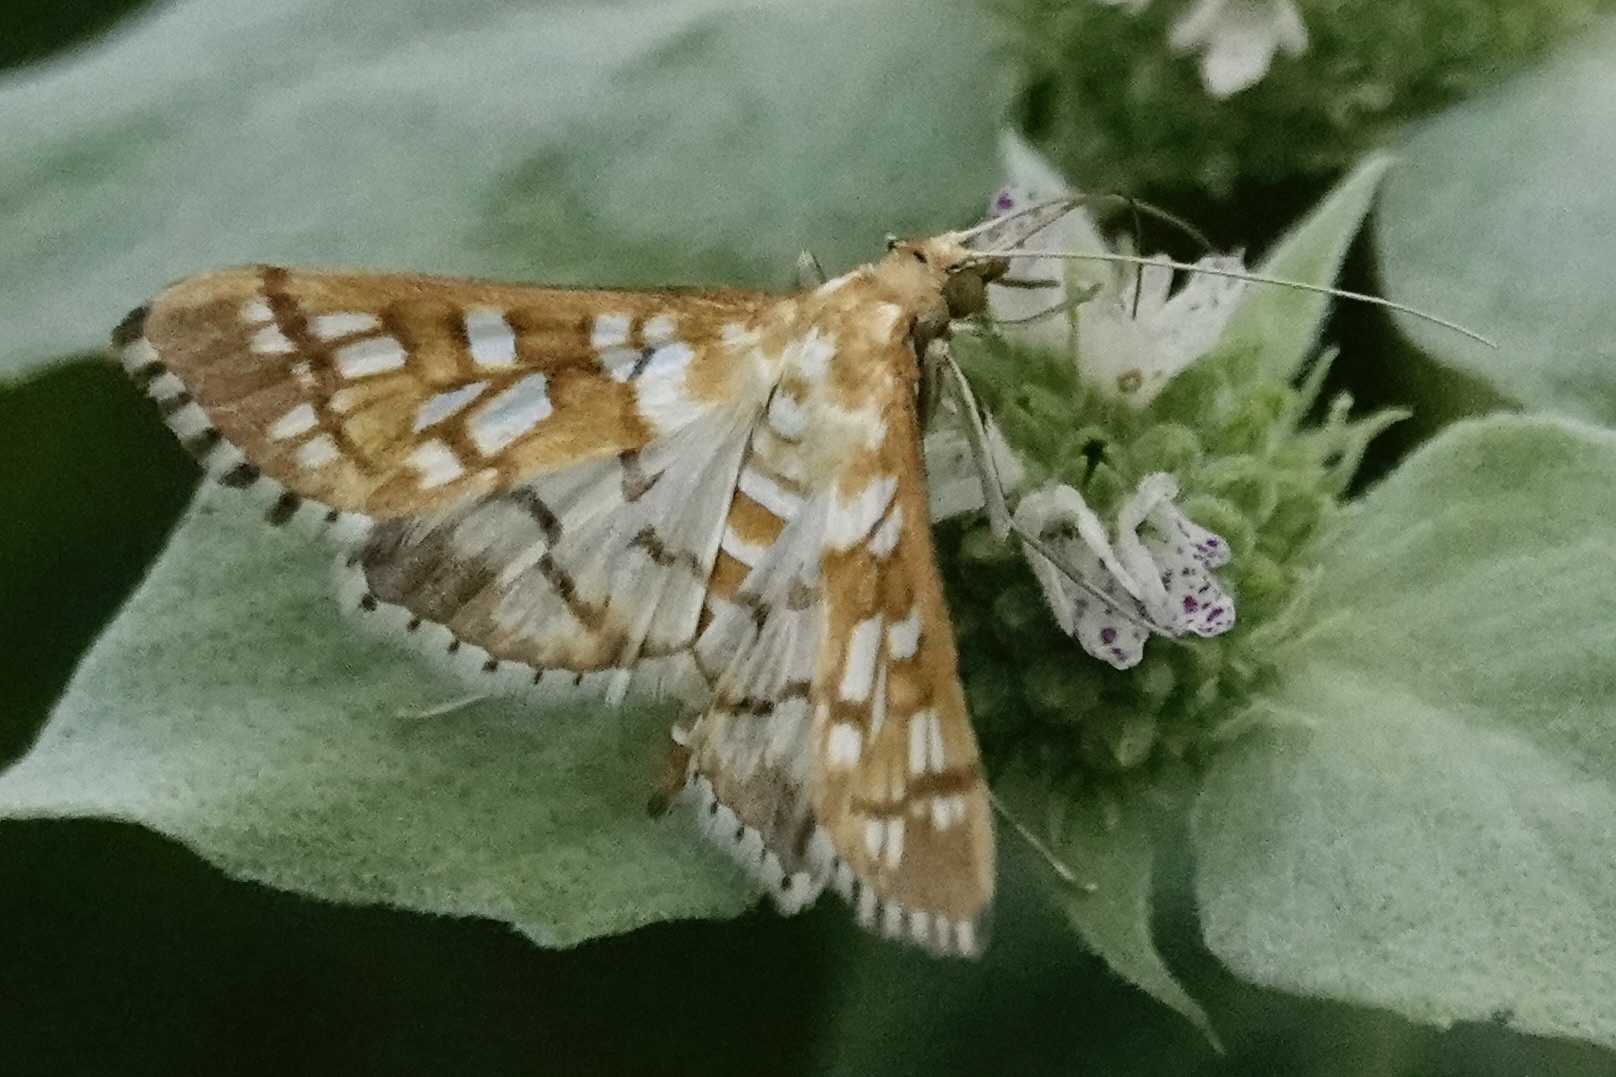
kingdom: Animalia
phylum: Arthropoda
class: Insecta
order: Lepidoptera
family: Crambidae
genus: Epipagis
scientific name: Epipagis fenestralis
